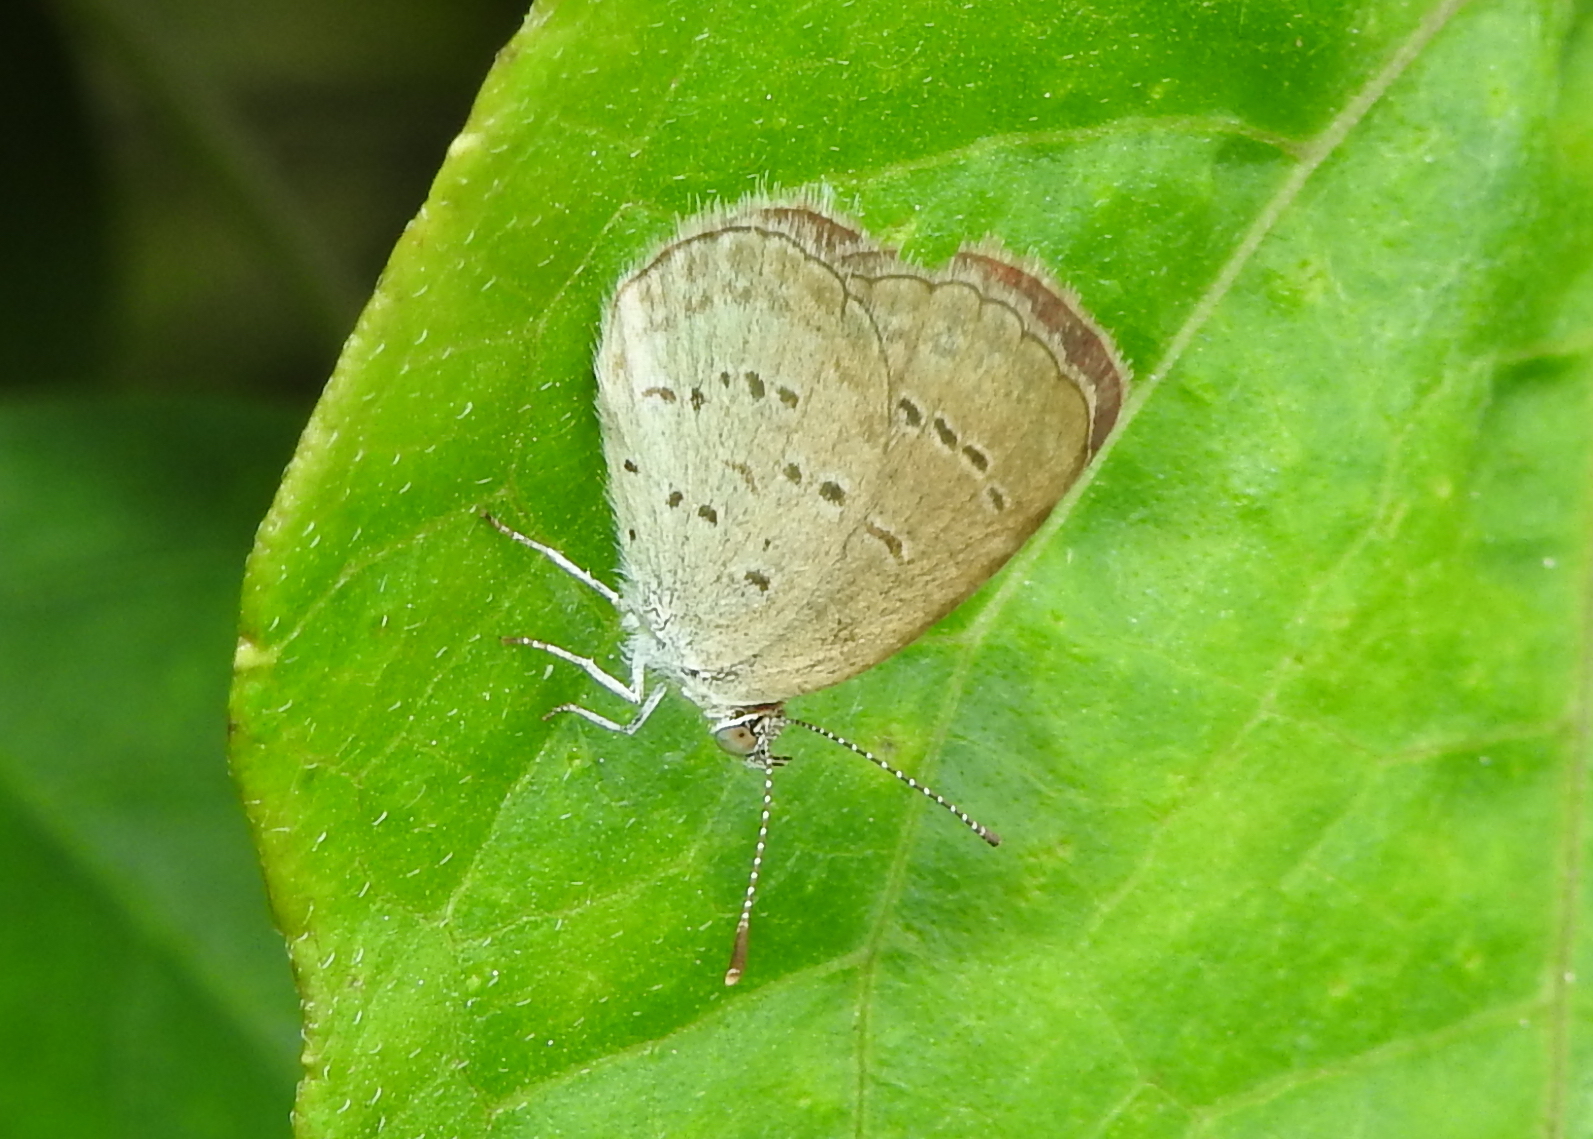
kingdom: Animalia
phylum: Arthropoda
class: Insecta
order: Lepidoptera
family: Lycaenidae
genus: Zizina
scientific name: Zizina otis
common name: Lesser grass blue
